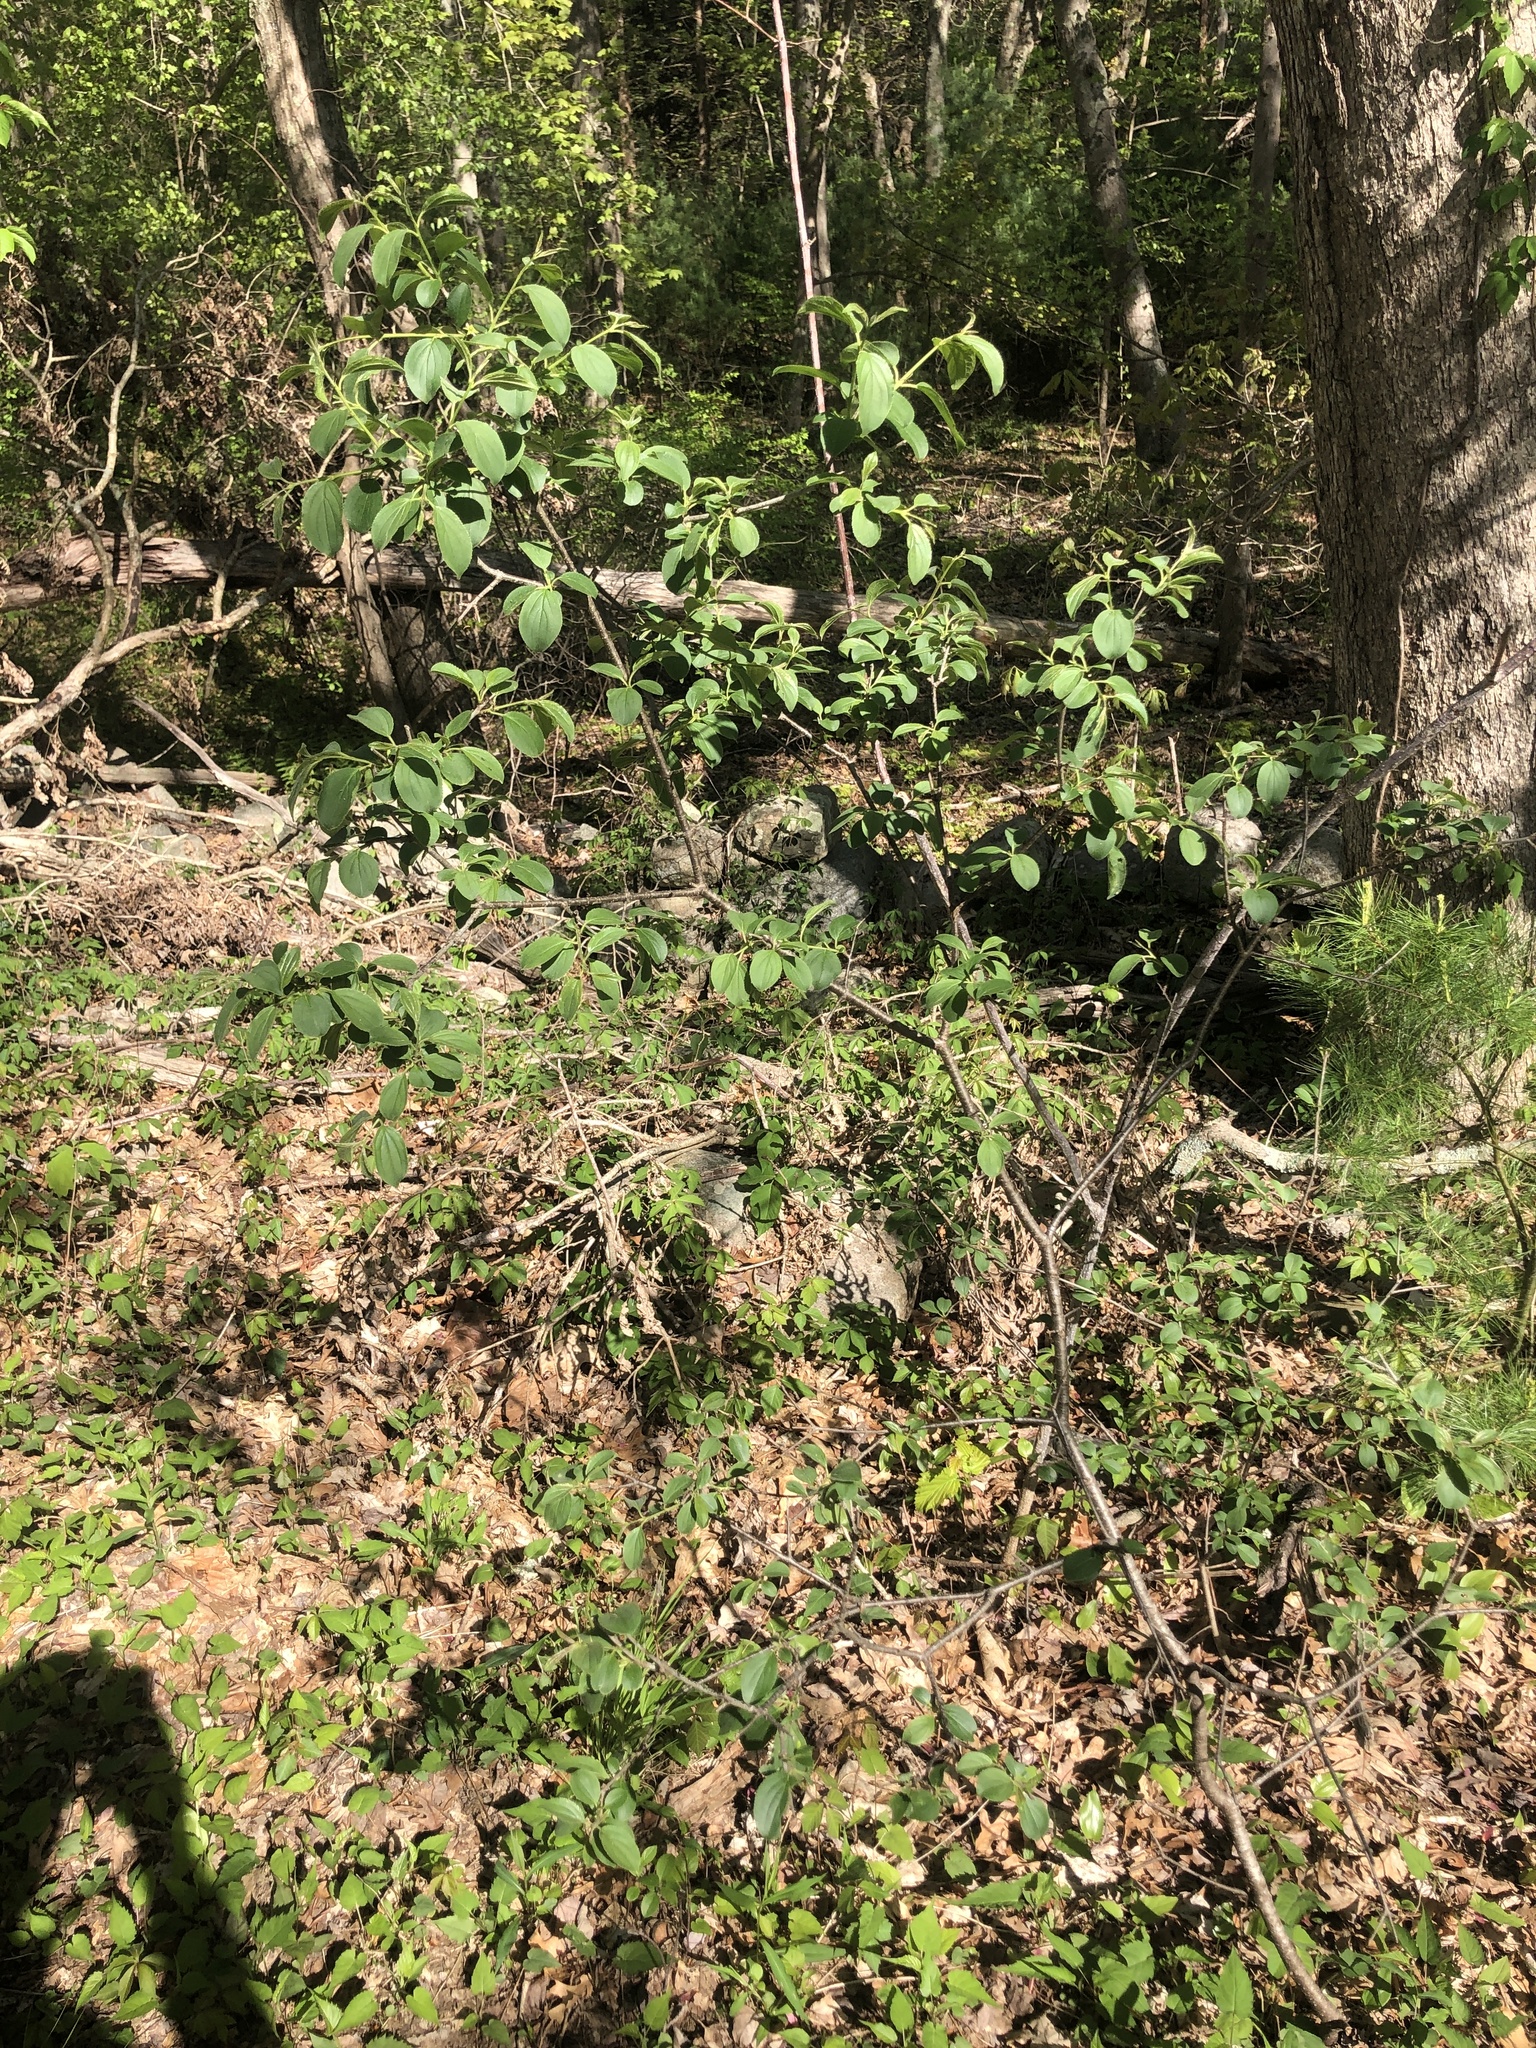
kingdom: Plantae
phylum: Tracheophyta
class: Magnoliopsida
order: Rosales
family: Rhamnaceae
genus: Rhamnus
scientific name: Rhamnus cathartica
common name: Common buckthorn
